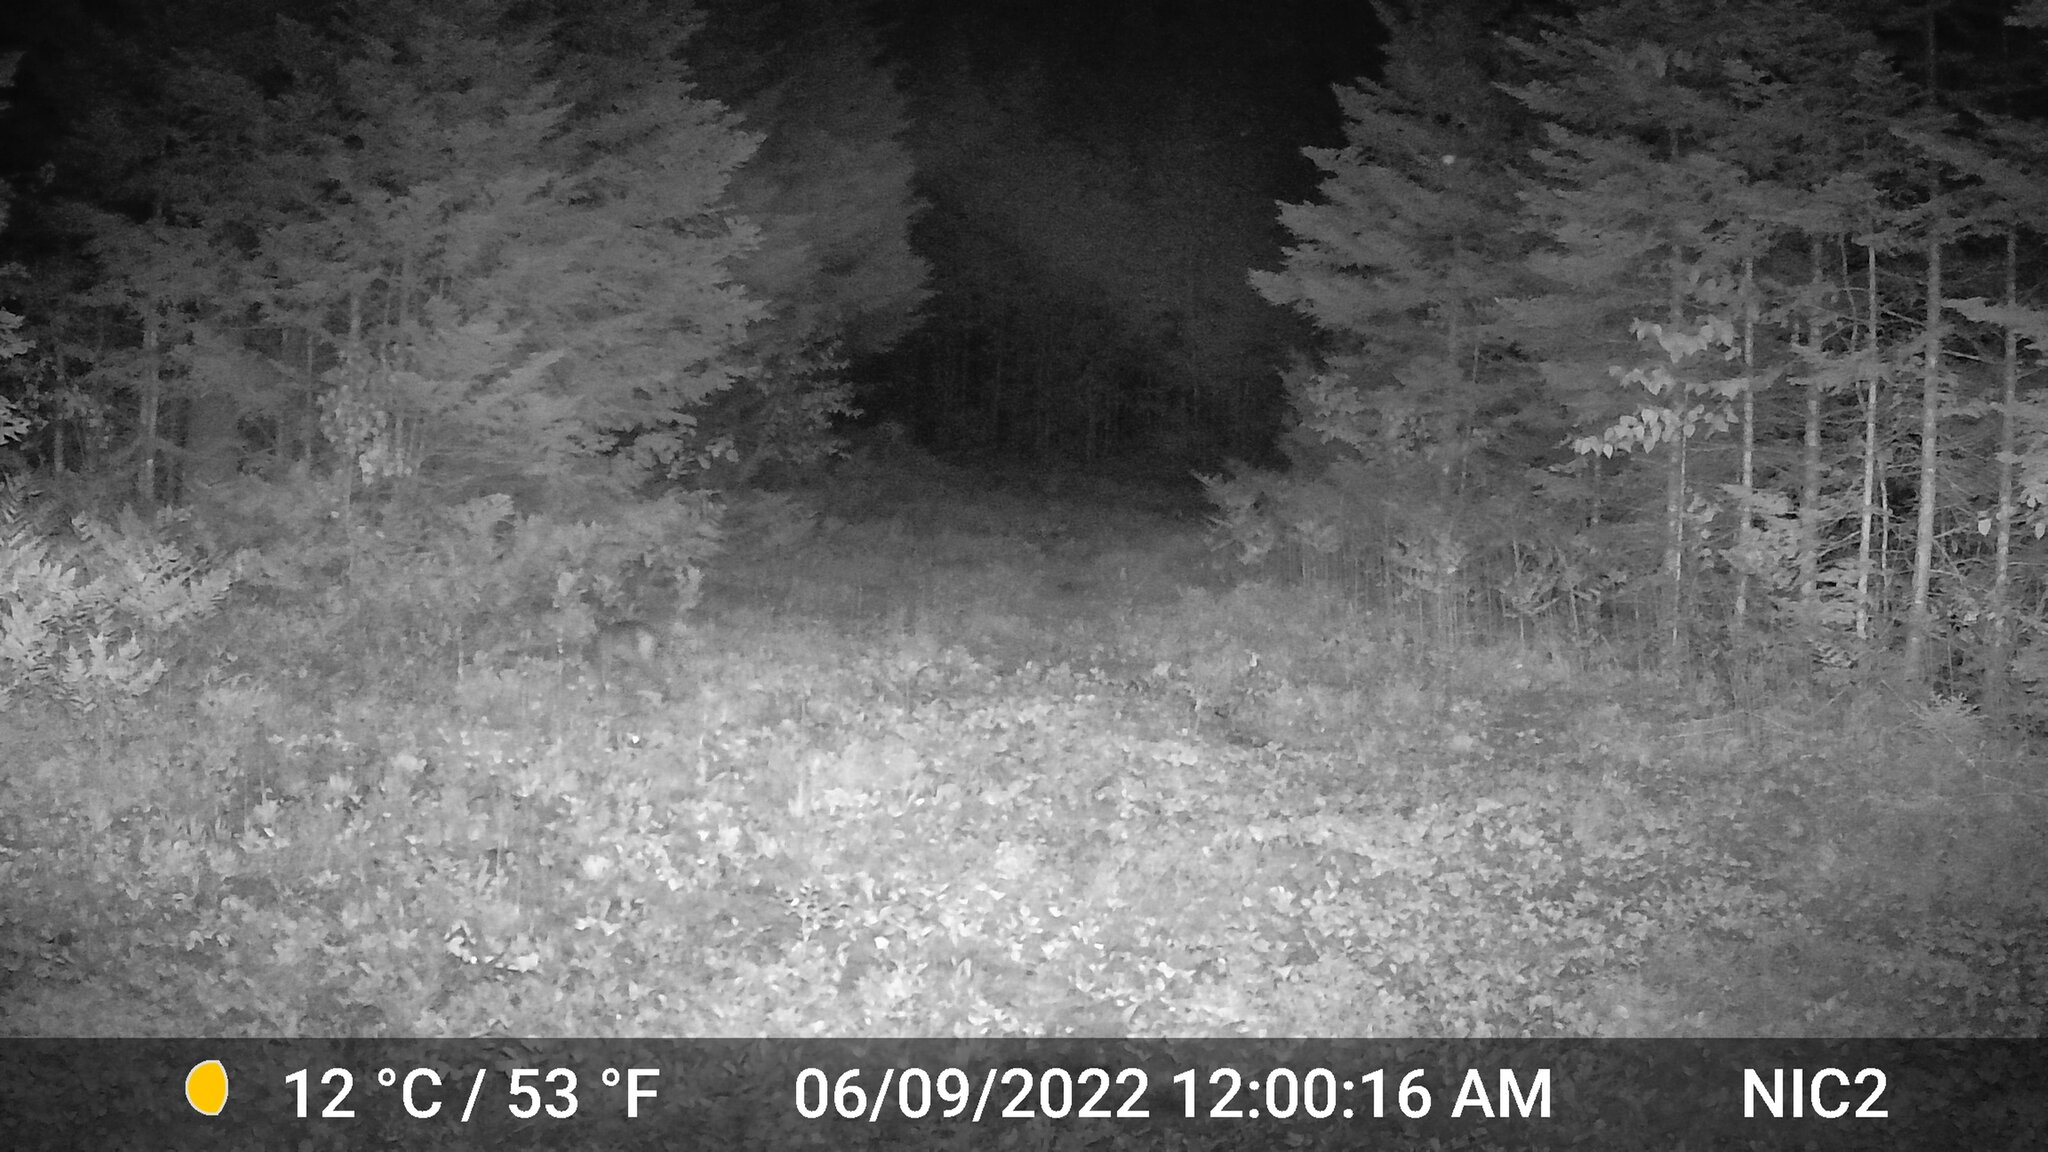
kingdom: Animalia
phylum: Chordata
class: Mammalia
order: Carnivora
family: Felidae
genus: Lynx
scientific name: Lynx rufus
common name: Bobcat
